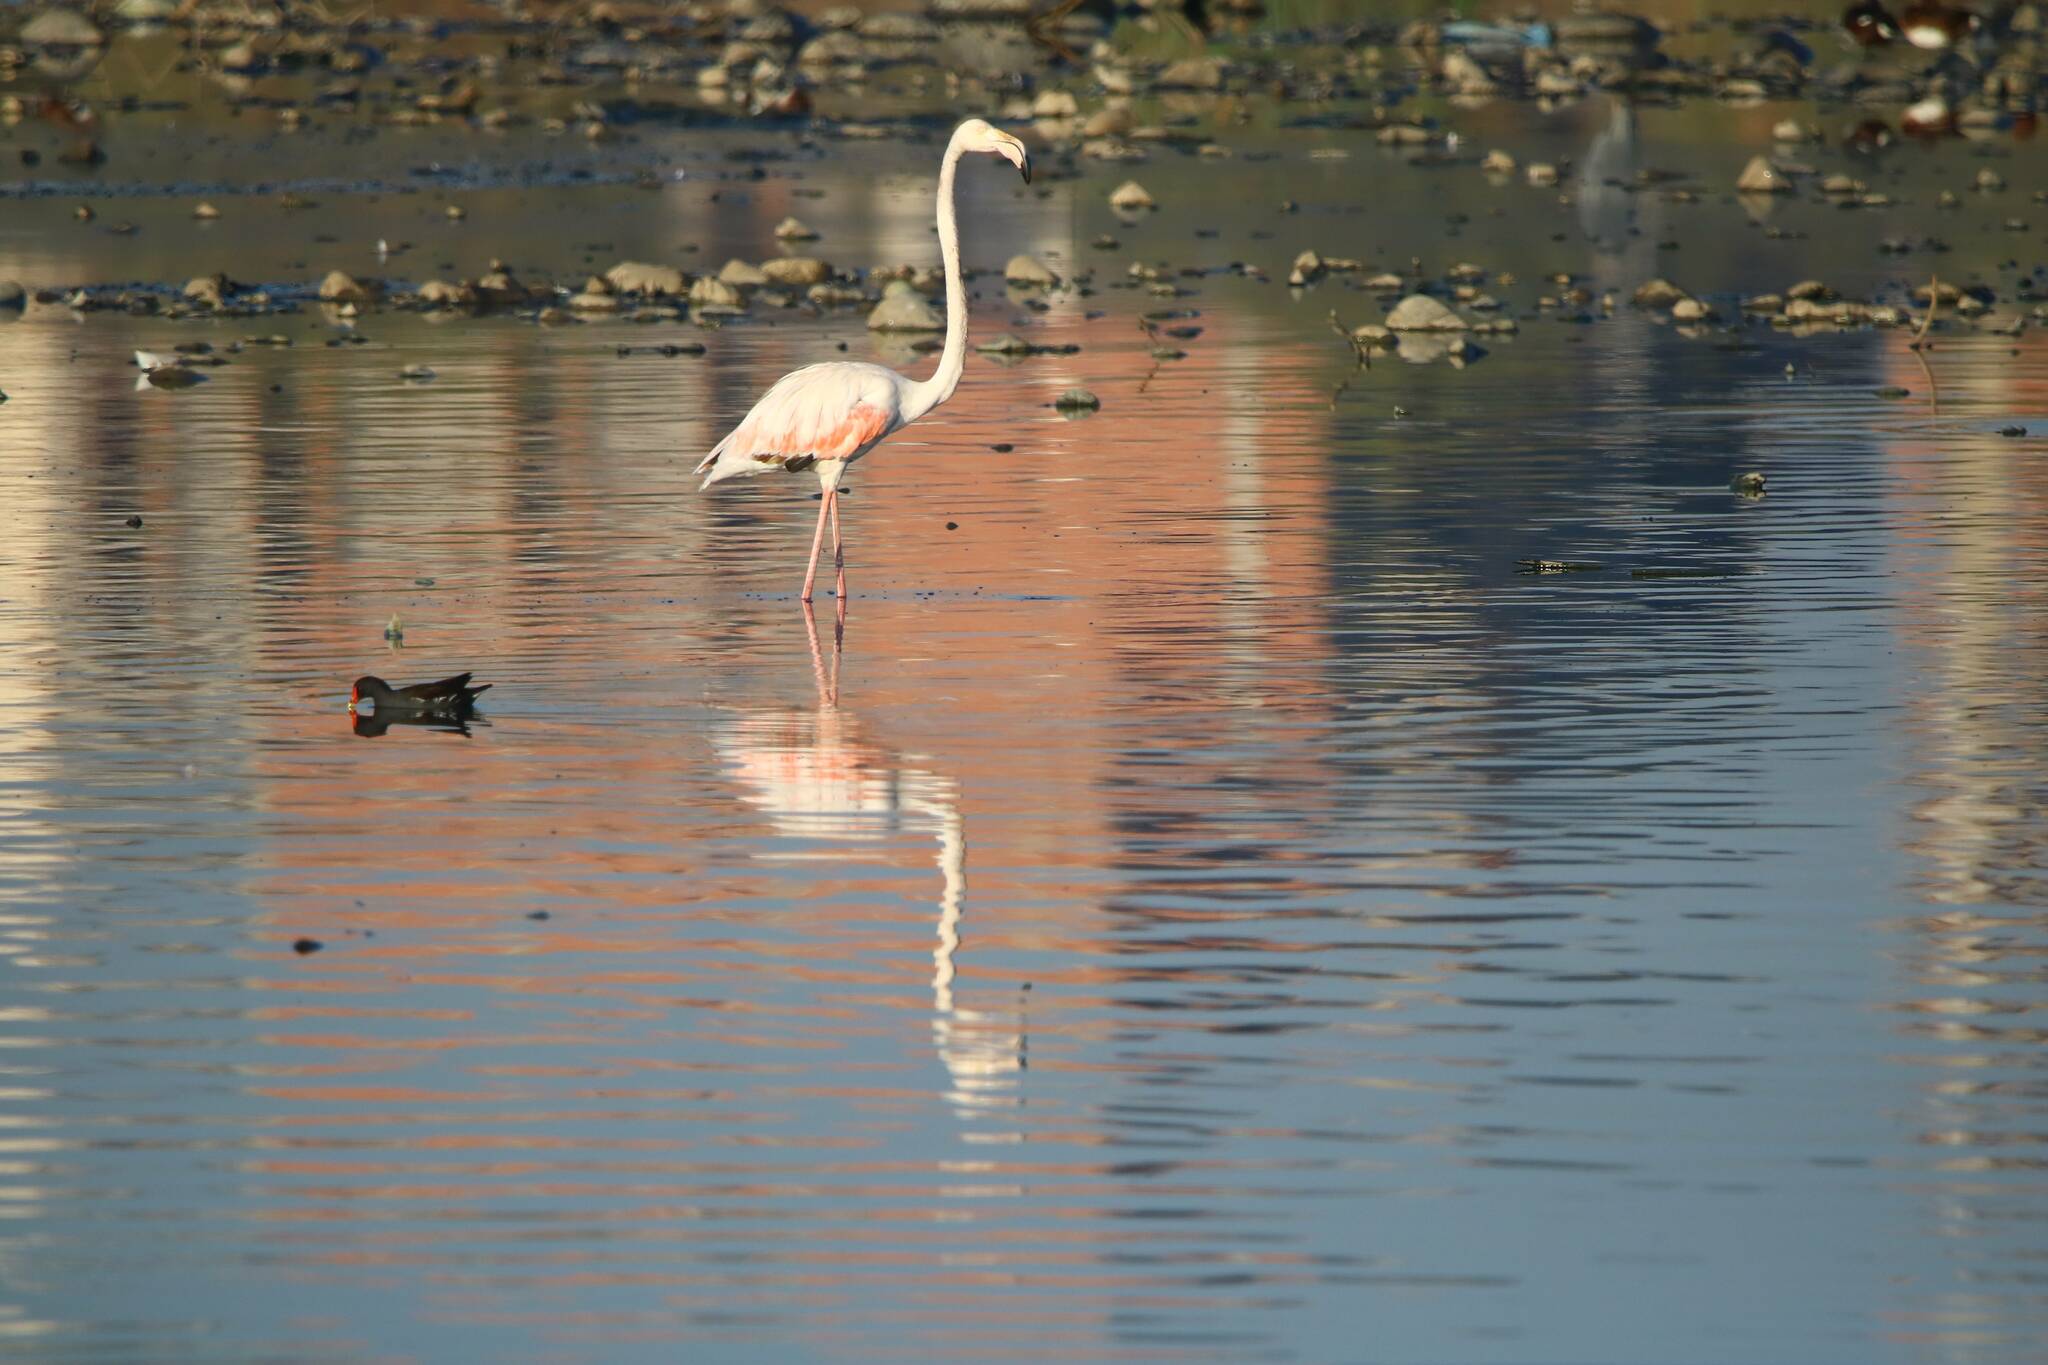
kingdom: Animalia
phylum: Chordata
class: Aves
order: Phoenicopteriformes
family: Phoenicopteridae
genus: Phoenicopterus
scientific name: Phoenicopterus roseus
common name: Greater flamingo
